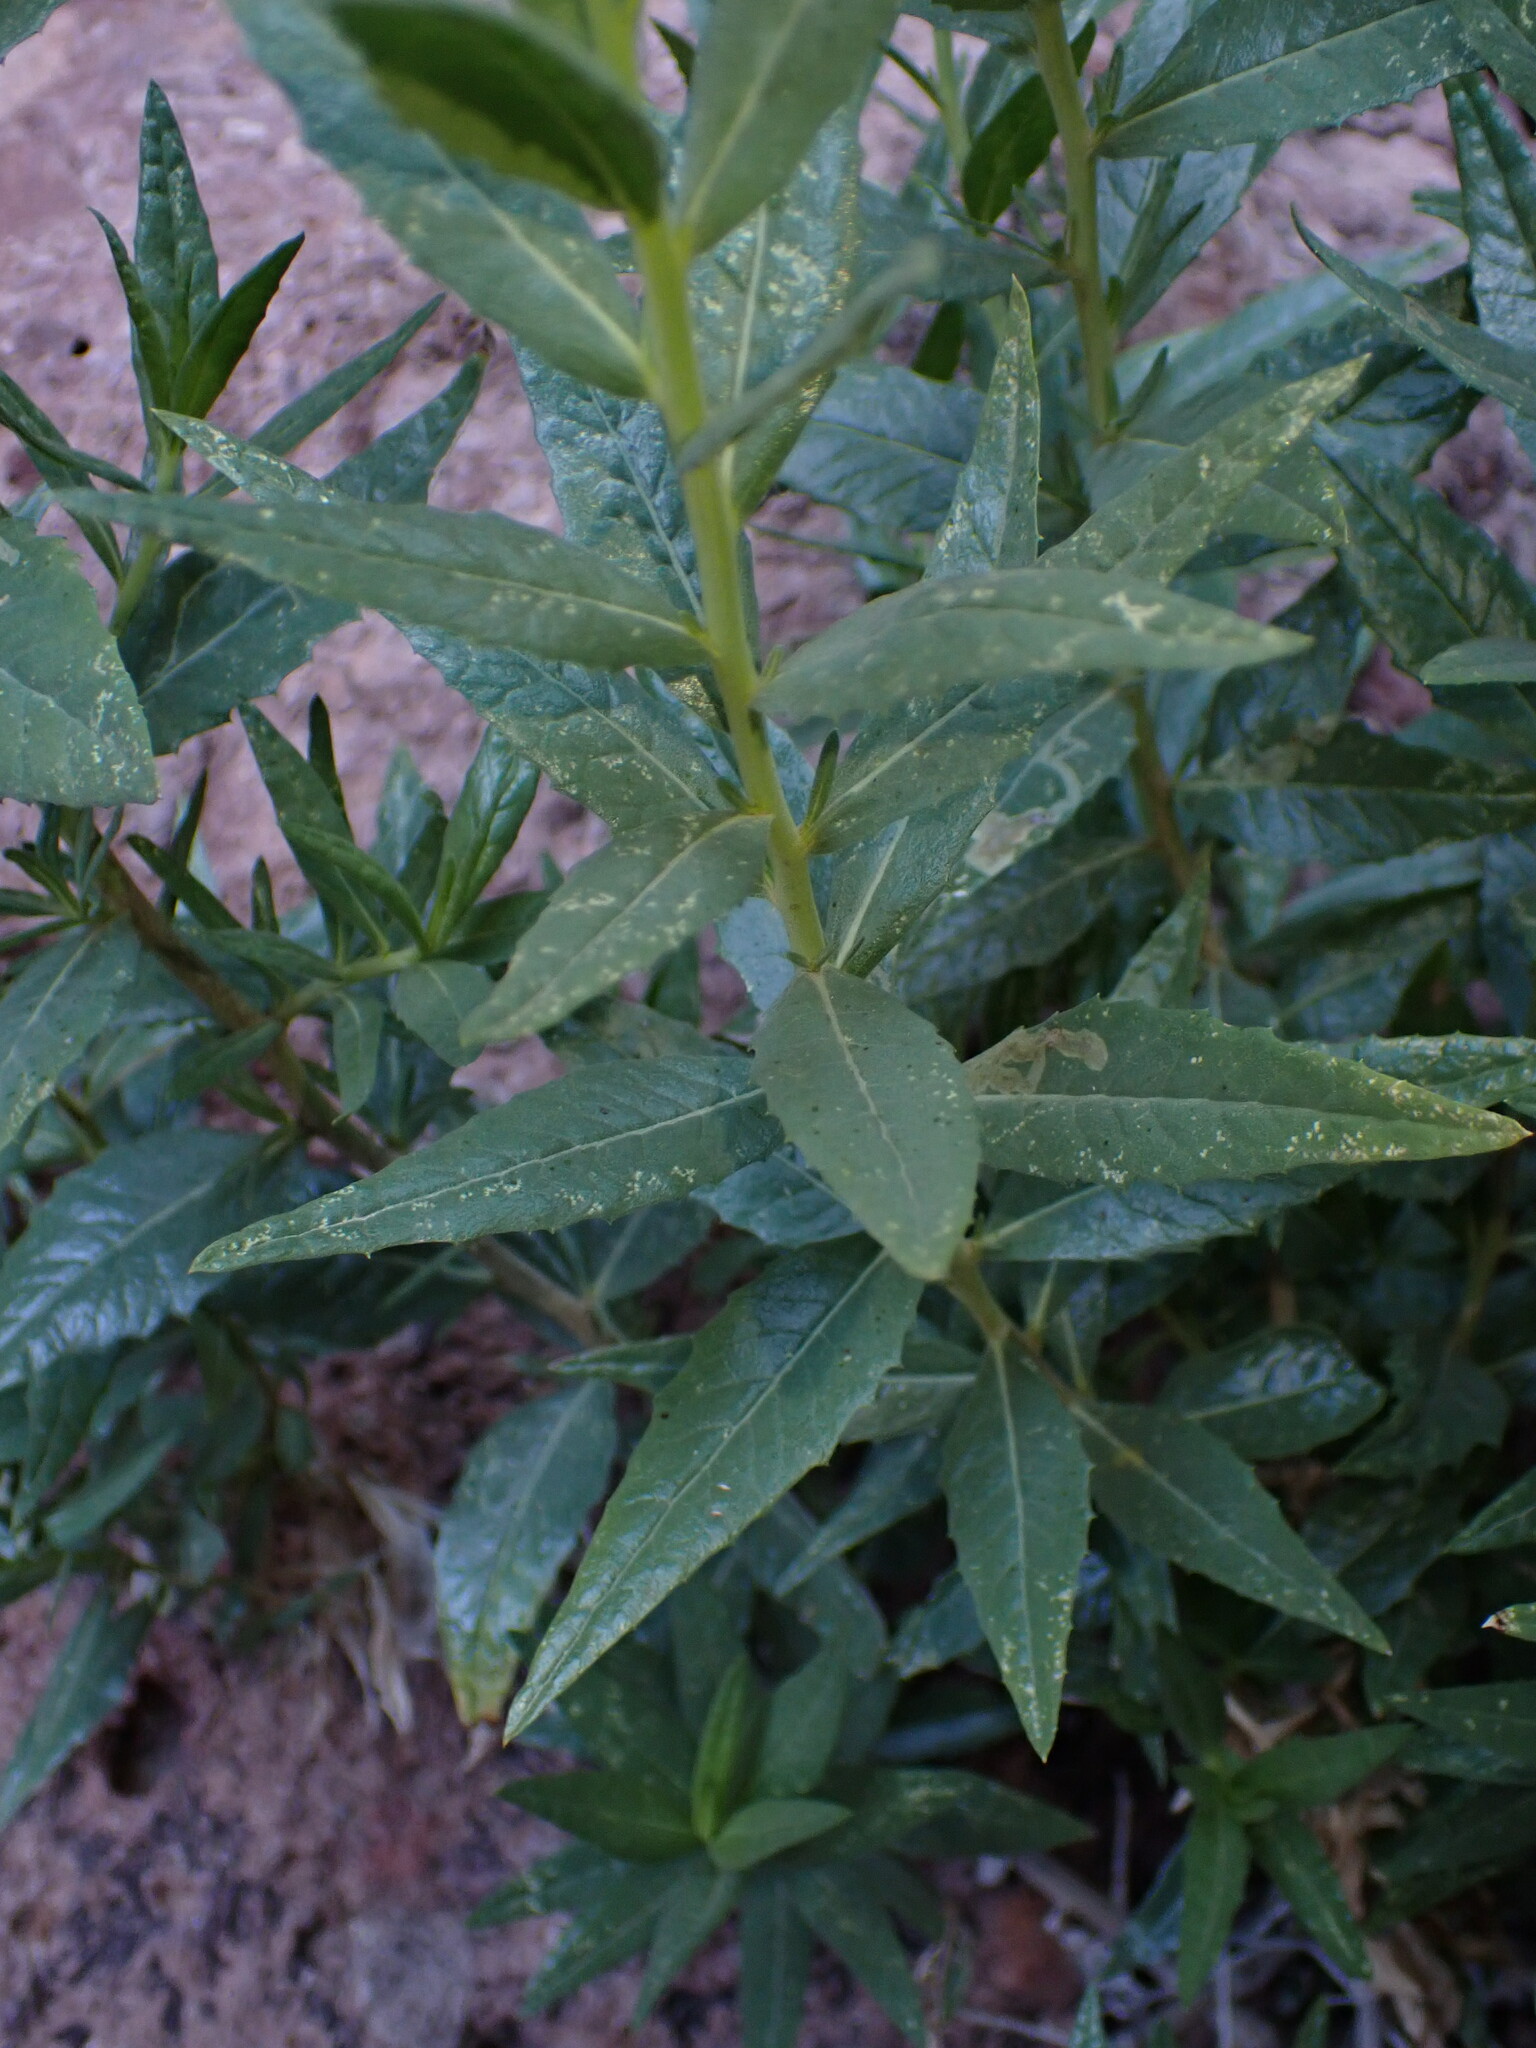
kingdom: Plantae
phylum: Tracheophyta
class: Magnoliopsida
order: Asterales
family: Asteraceae
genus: Trixis
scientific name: Trixis californica
